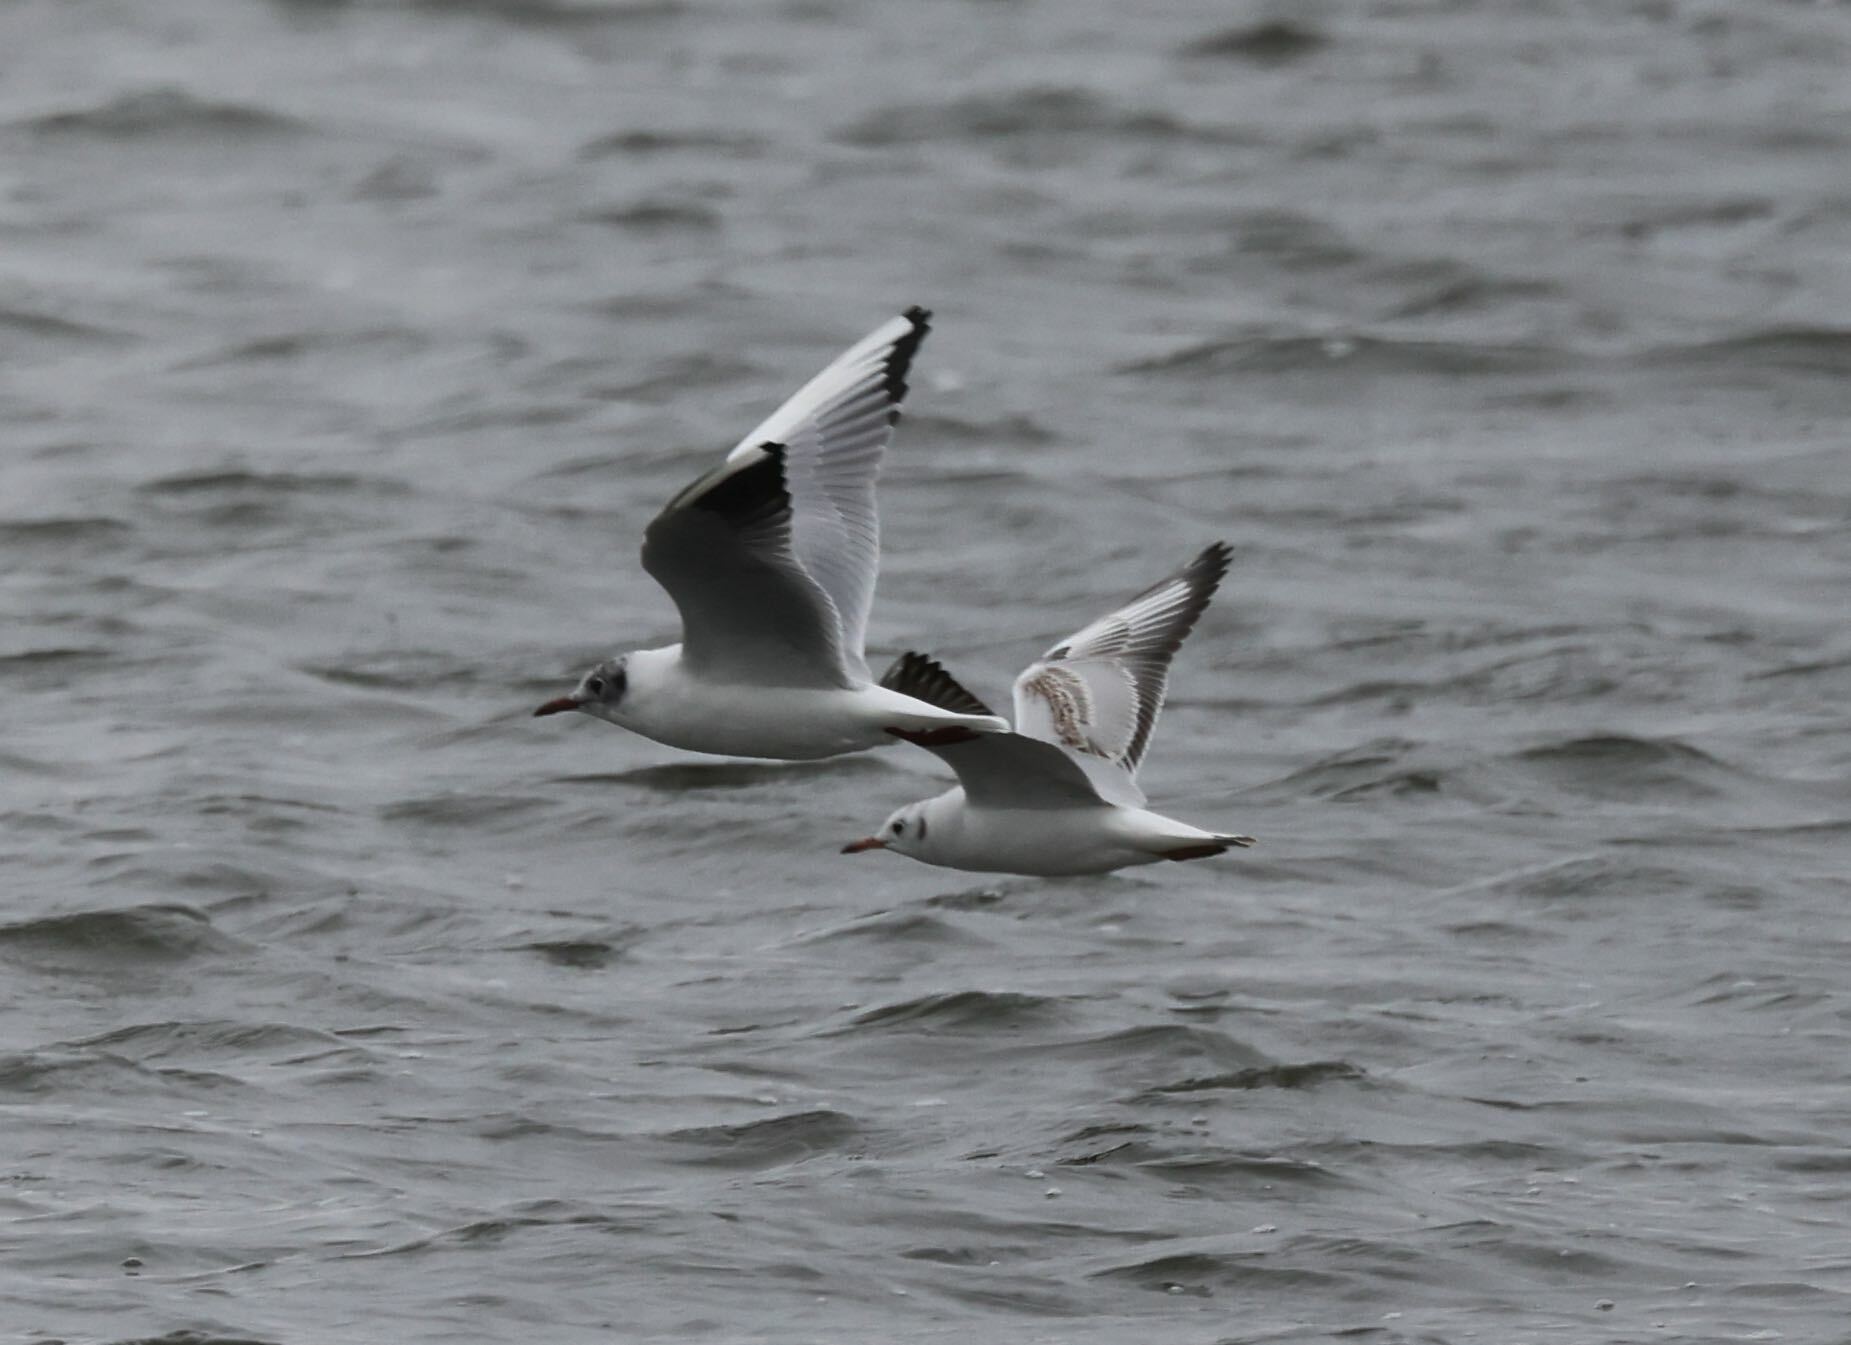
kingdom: Animalia
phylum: Chordata
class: Aves
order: Charadriiformes
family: Laridae
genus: Chroicocephalus
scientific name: Chroicocephalus ridibundus
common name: Black-headed gull
